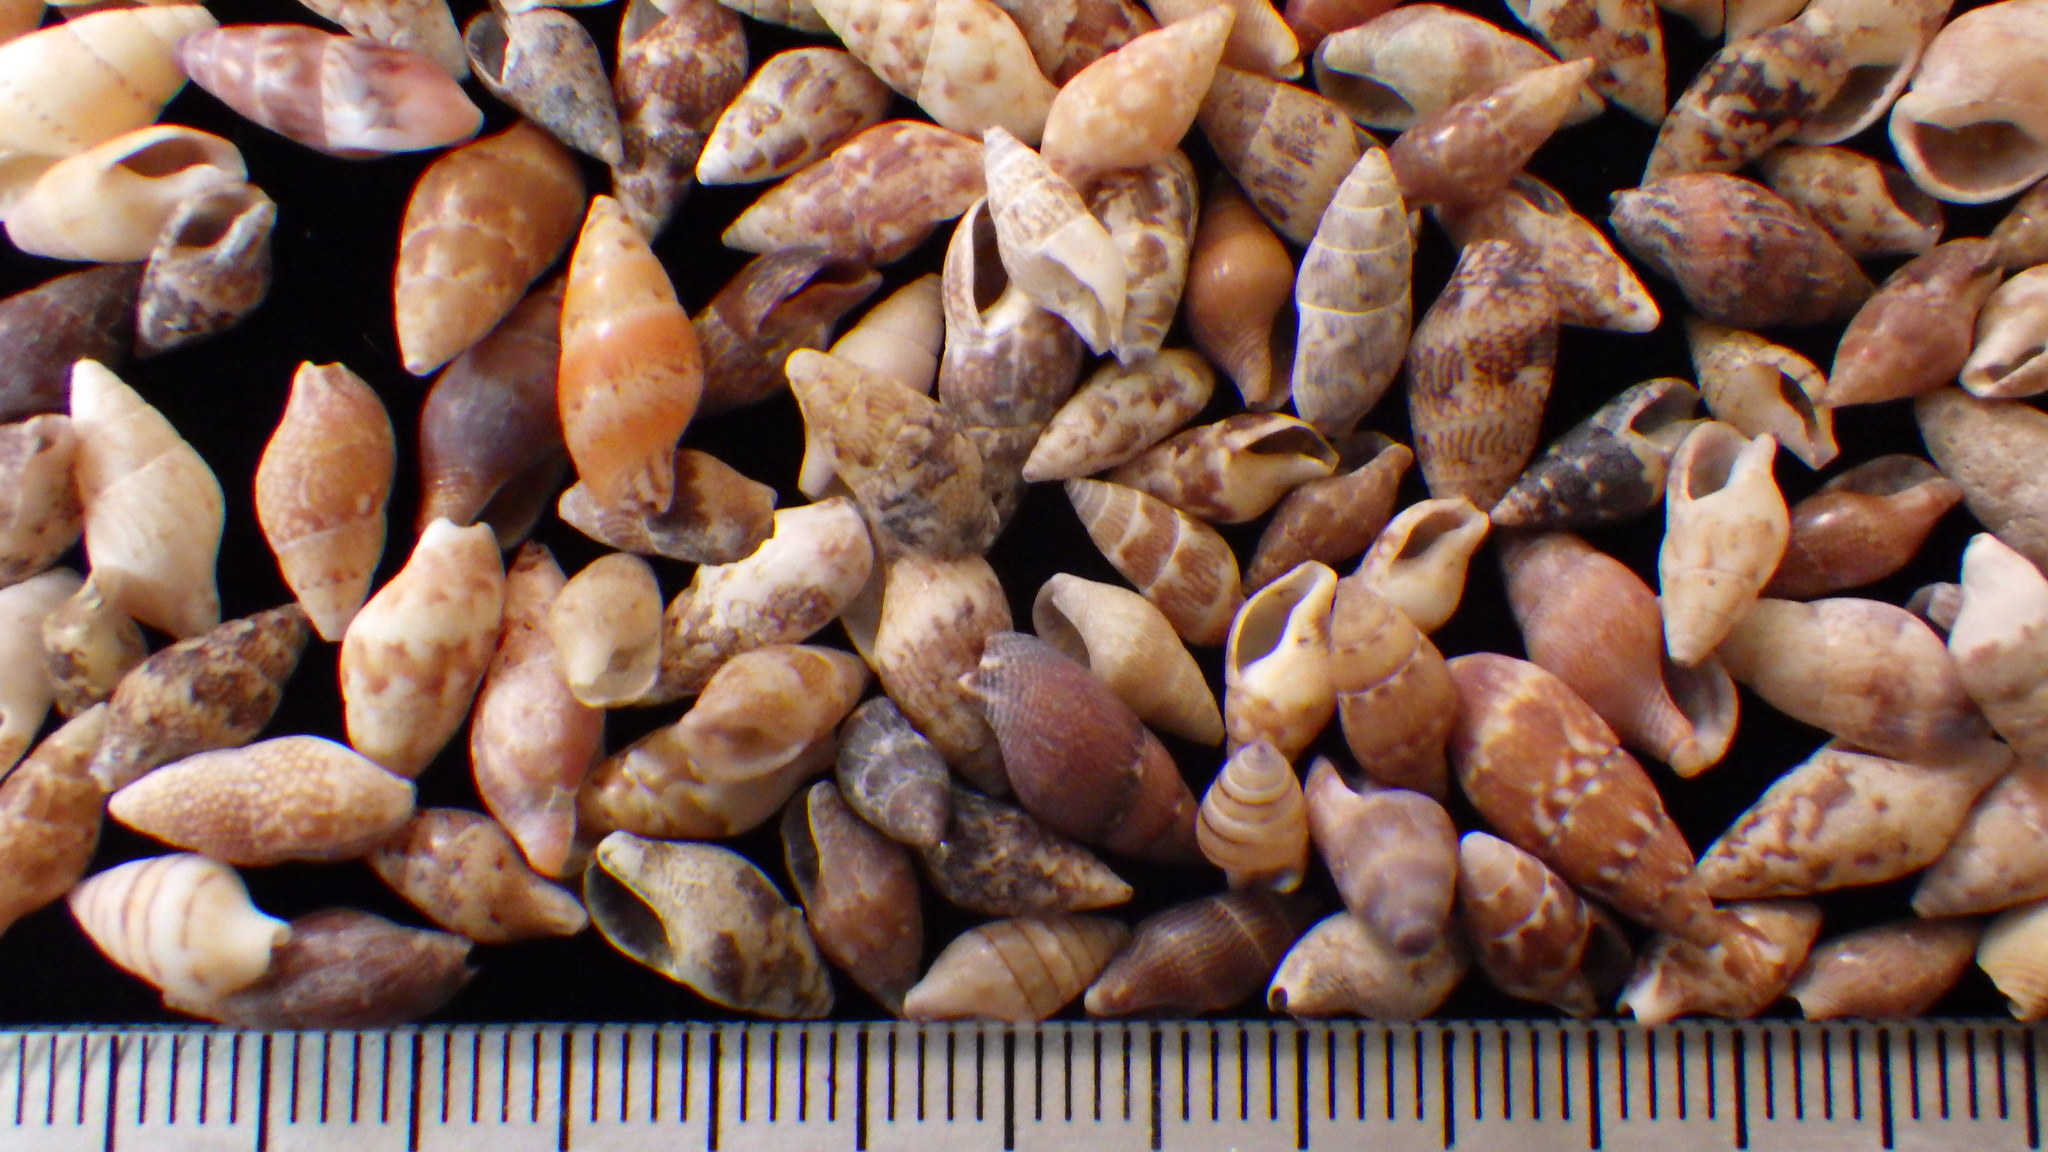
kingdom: Animalia
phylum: Mollusca
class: Gastropoda
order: Neogastropoda
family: Columbellidae
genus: Mitrella
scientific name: Mitrella bicincta
